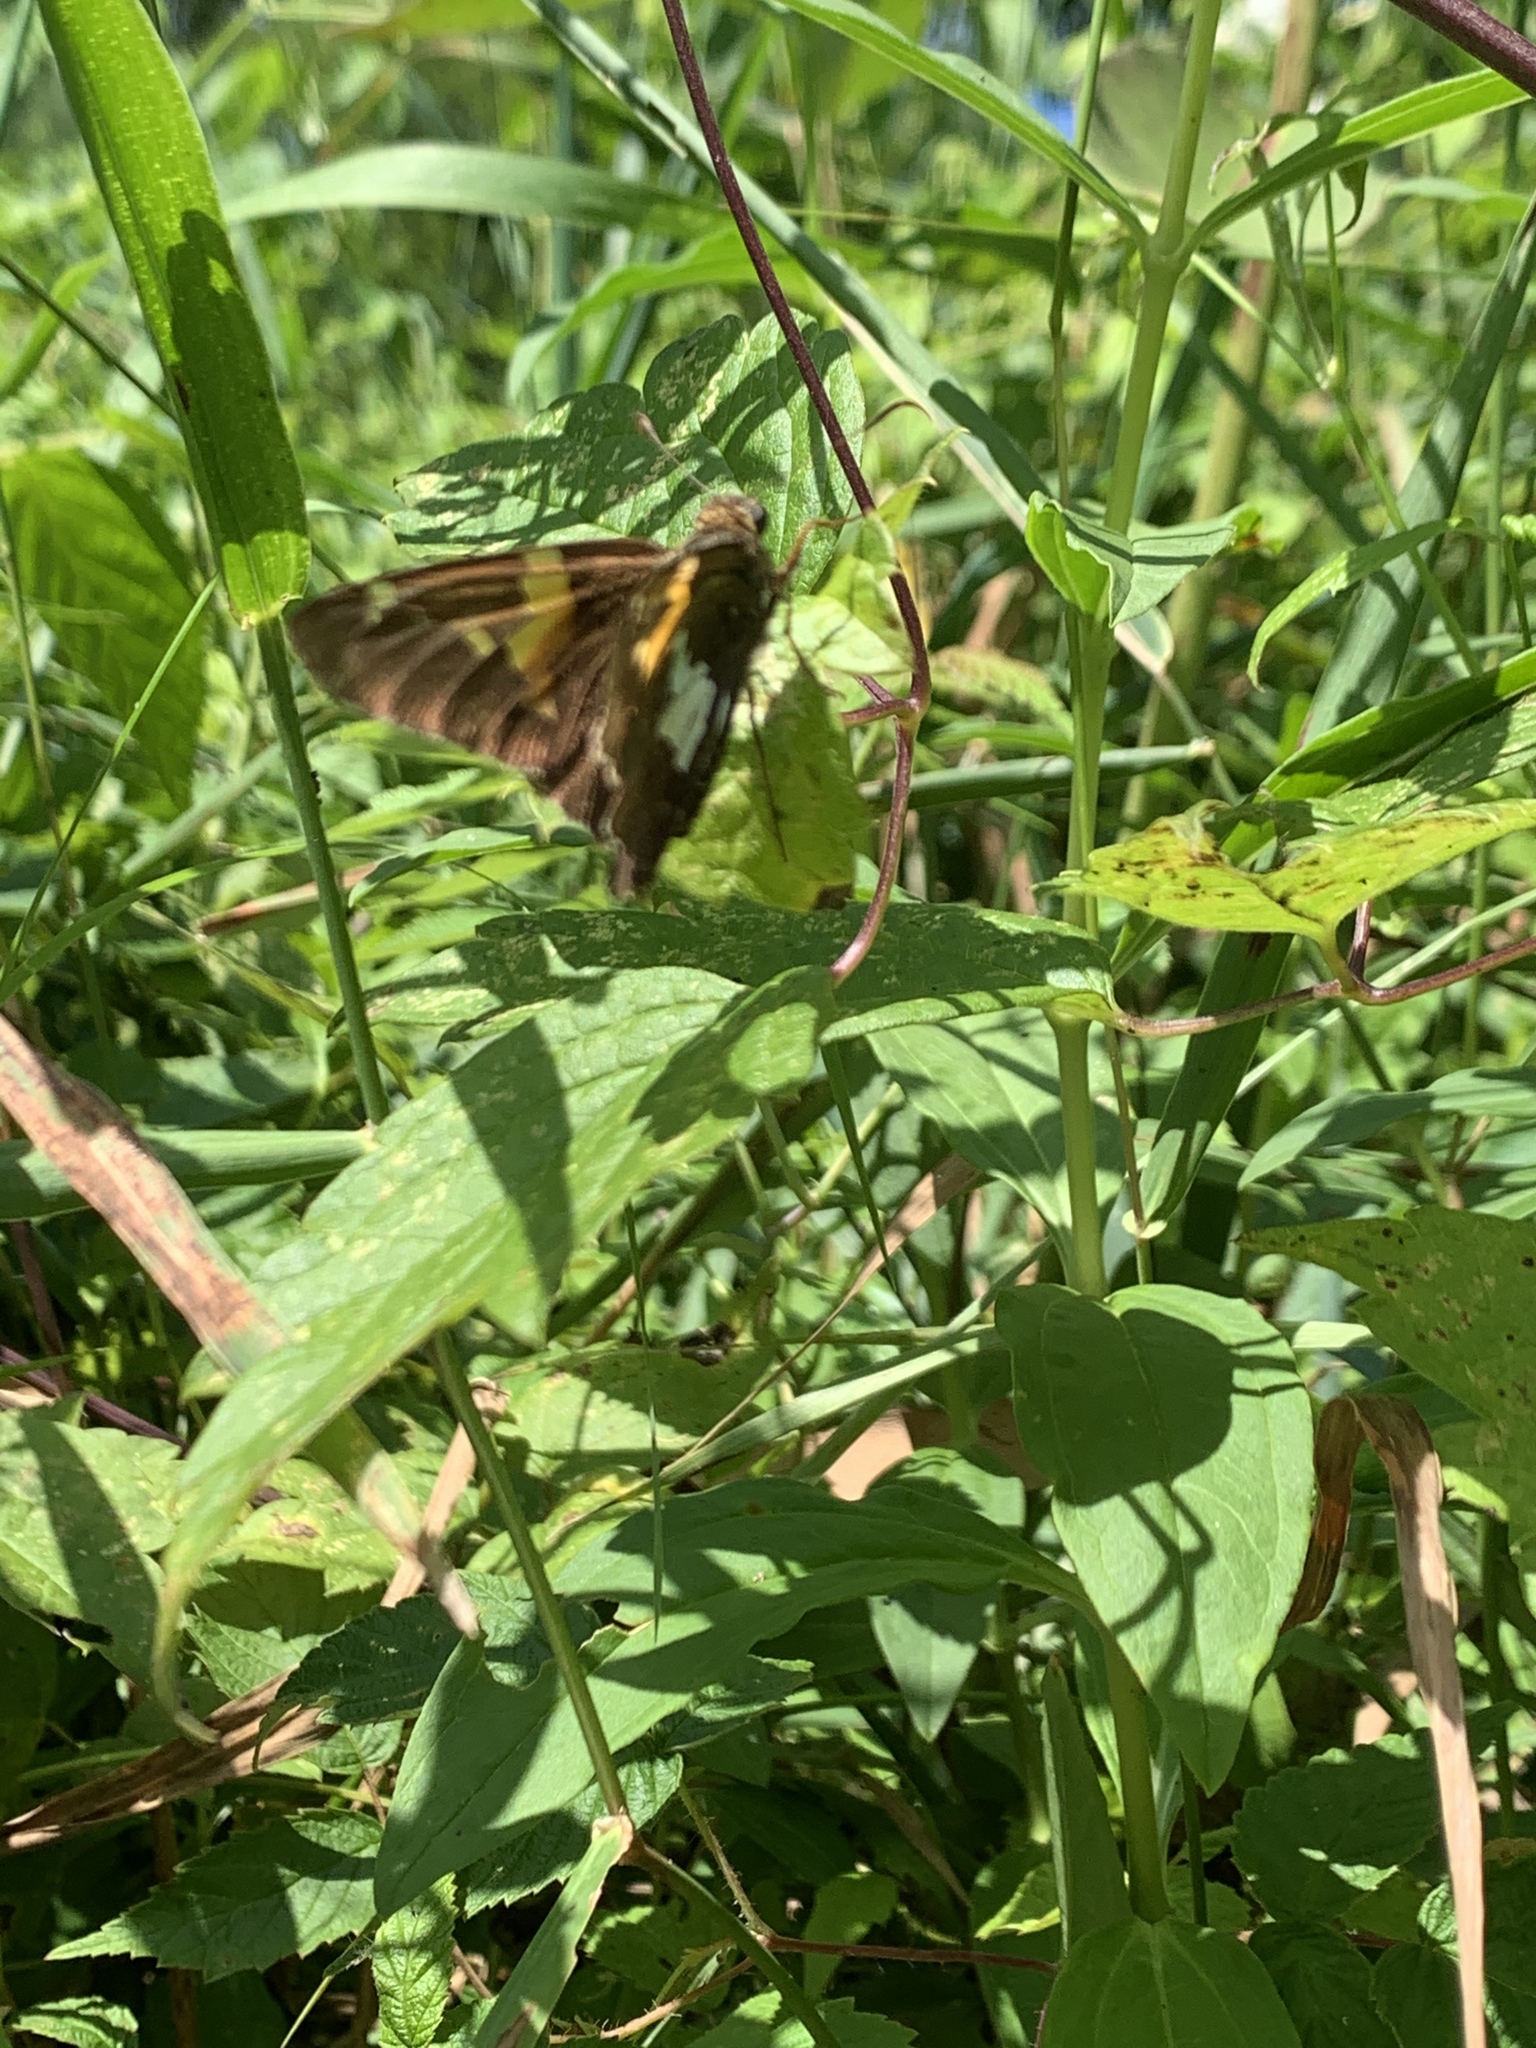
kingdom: Animalia
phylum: Arthropoda
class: Insecta
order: Lepidoptera
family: Hesperiidae
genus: Epargyreus
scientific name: Epargyreus clarus
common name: Silver-spotted skipper
